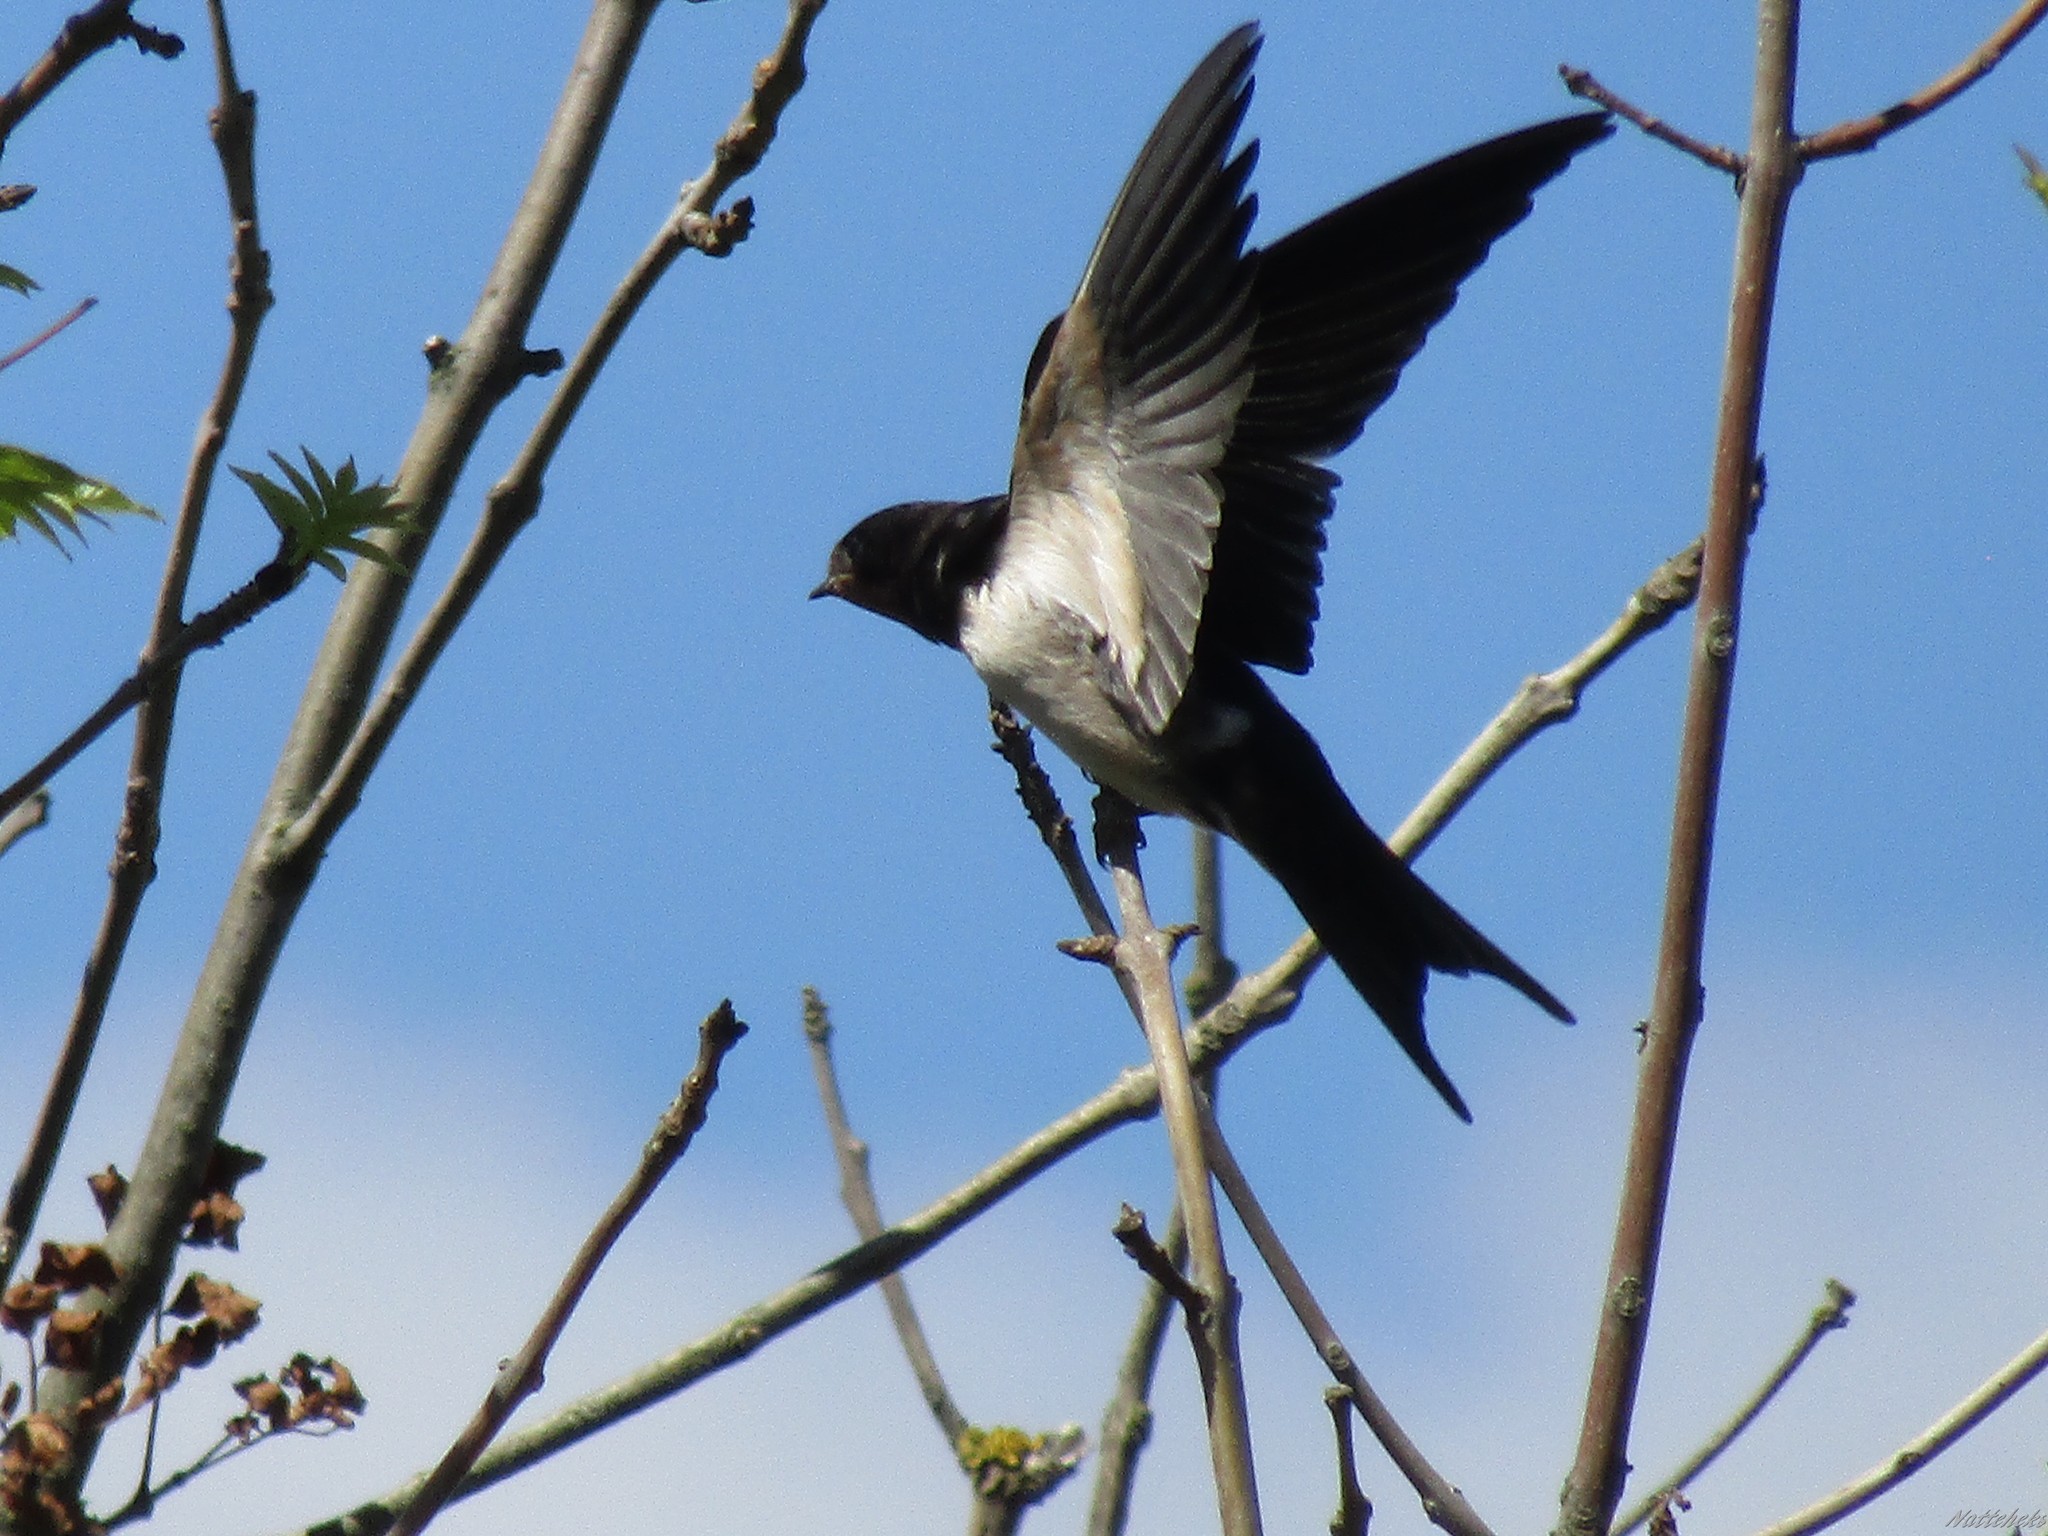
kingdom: Animalia
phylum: Chordata
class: Aves
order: Passeriformes
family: Hirundinidae
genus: Hirundo
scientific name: Hirundo rustica
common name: Barn swallow
